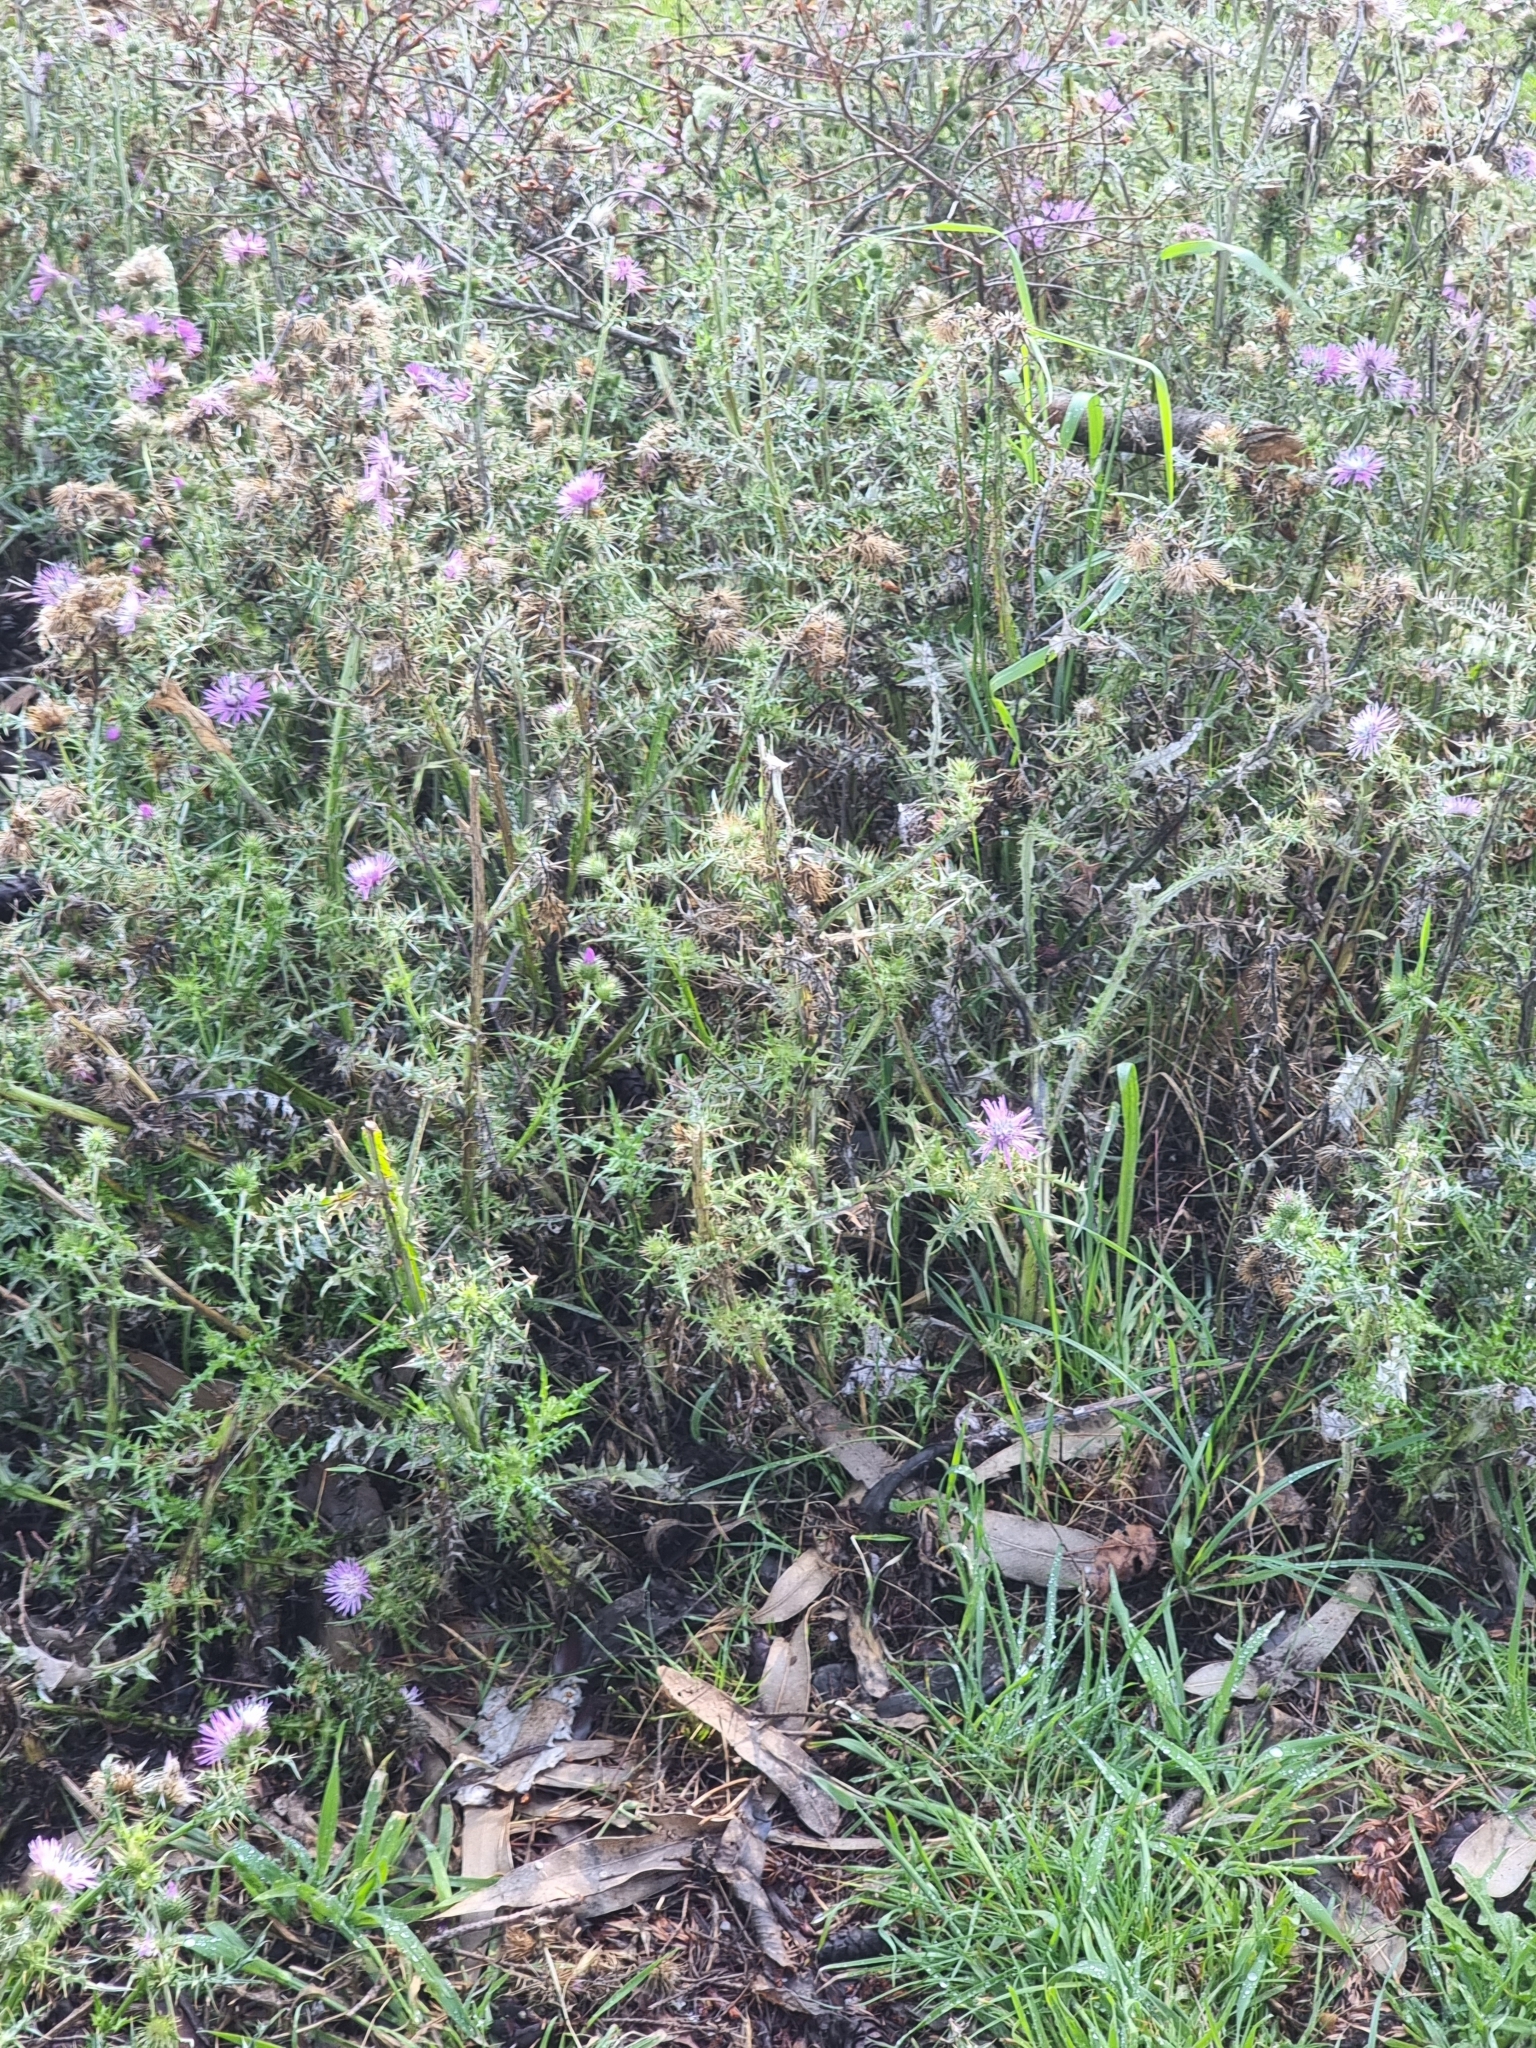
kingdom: Plantae
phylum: Tracheophyta
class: Magnoliopsida
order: Asterales
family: Asteraceae
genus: Galactites
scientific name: Galactites tomentosa
